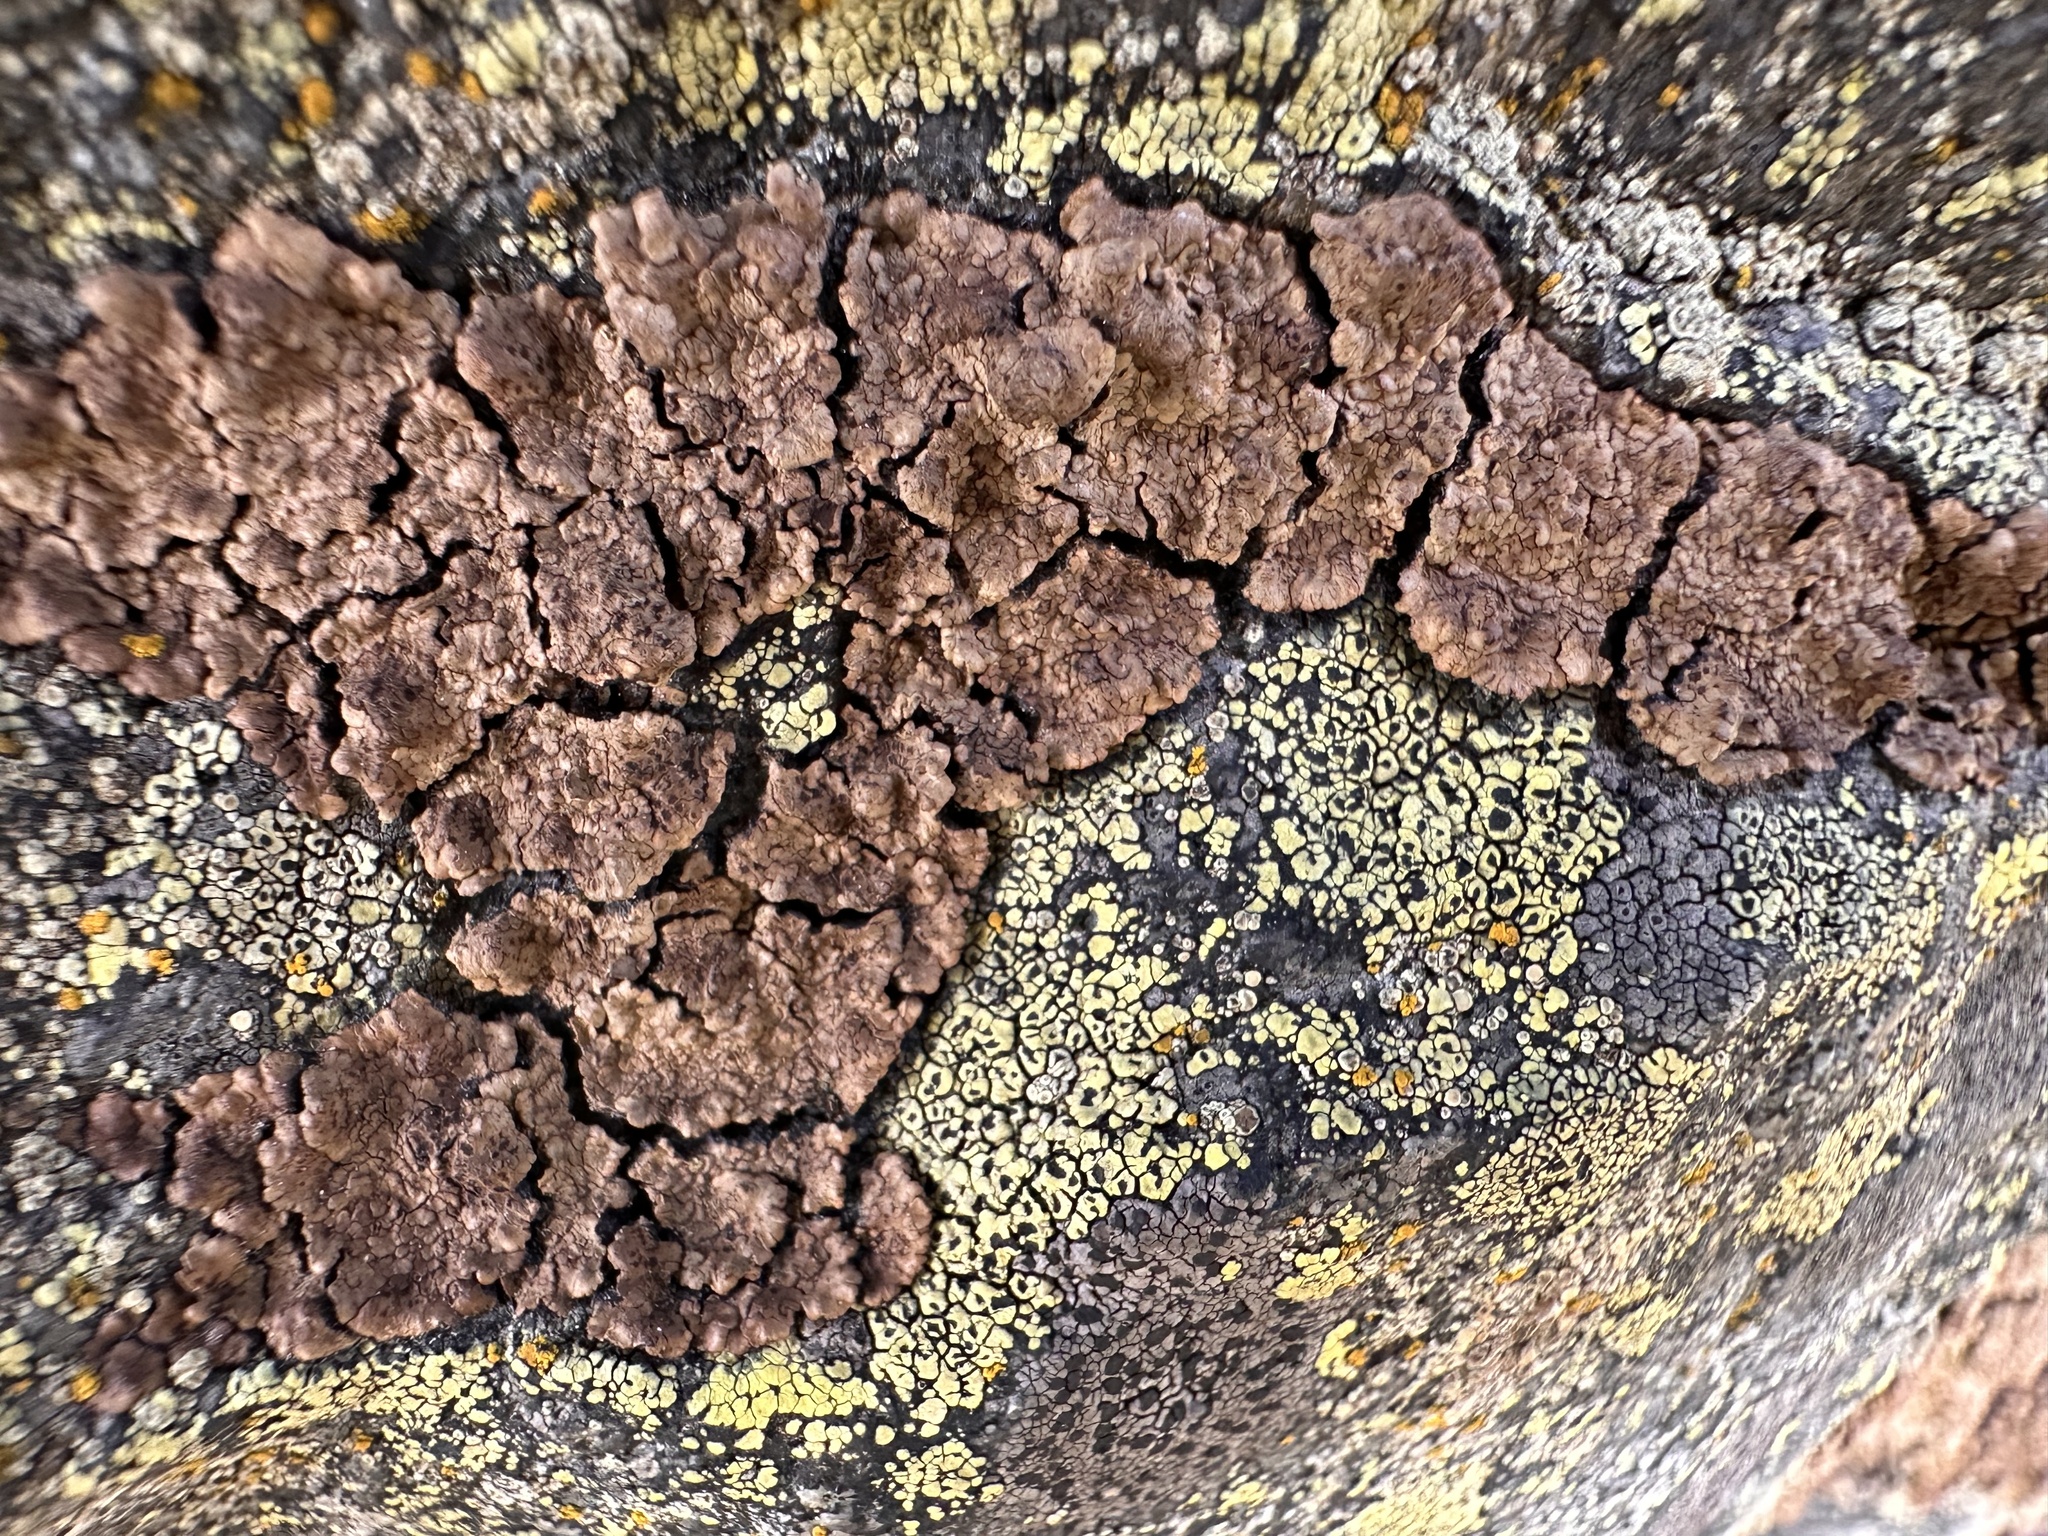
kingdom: Fungi
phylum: Ascomycota
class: Lecanoromycetes
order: Acarosporales
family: Acarosporaceae
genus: Acarospora
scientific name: Acarospora fuscata
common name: Brown cobblestone lichen
